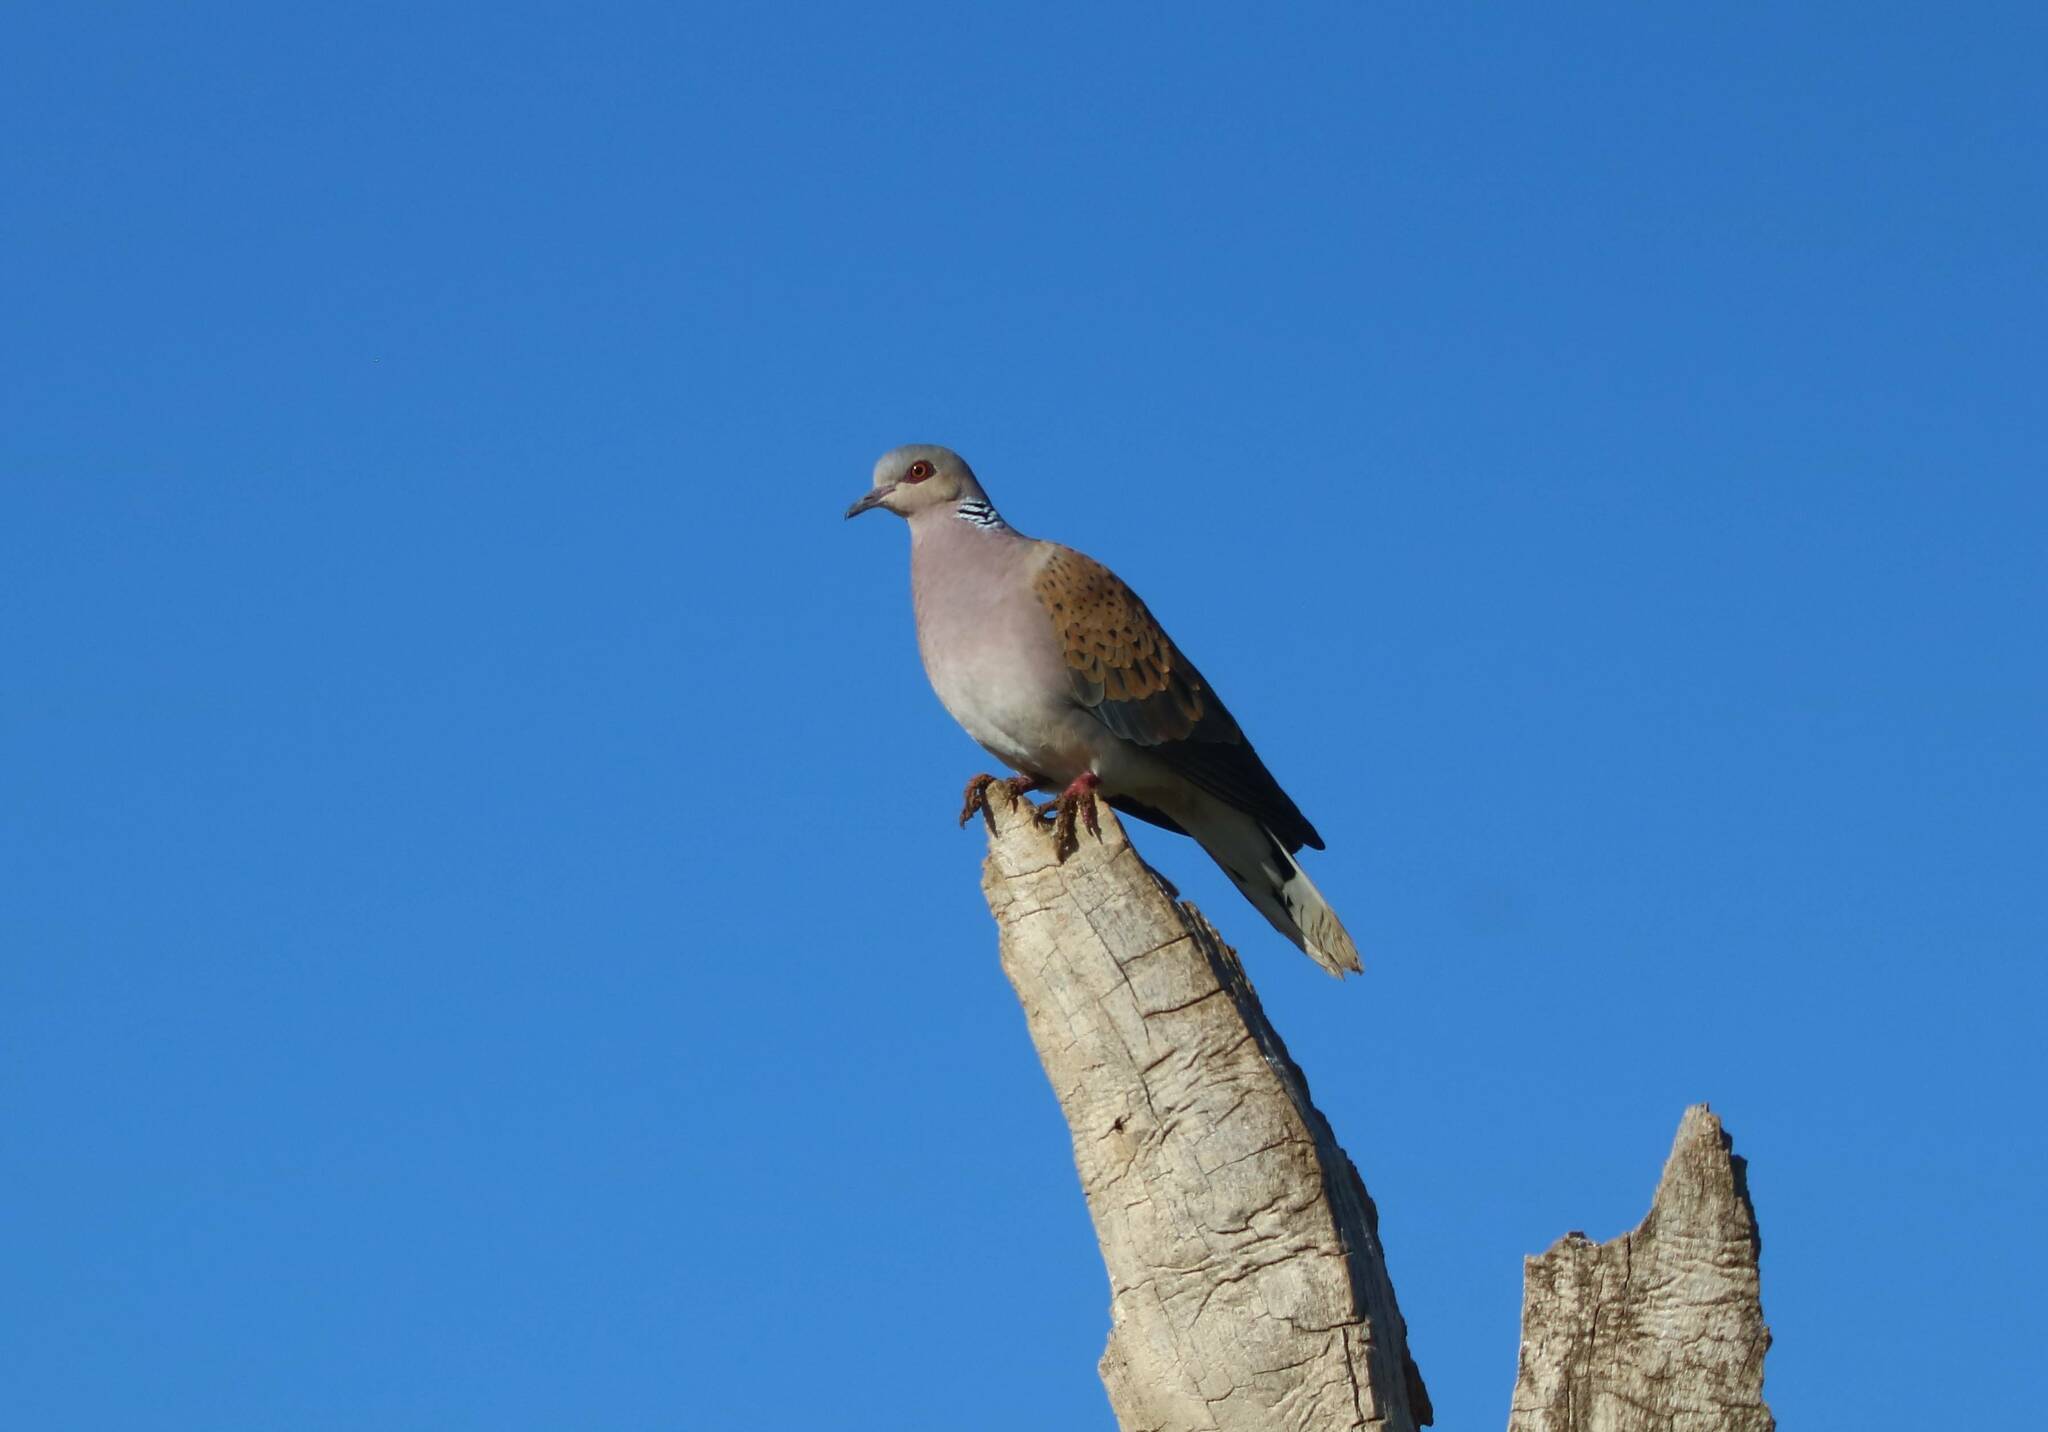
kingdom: Animalia
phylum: Chordata
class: Aves
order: Columbiformes
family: Columbidae
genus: Streptopelia
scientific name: Streptopelia turtur
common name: European turtle dove
